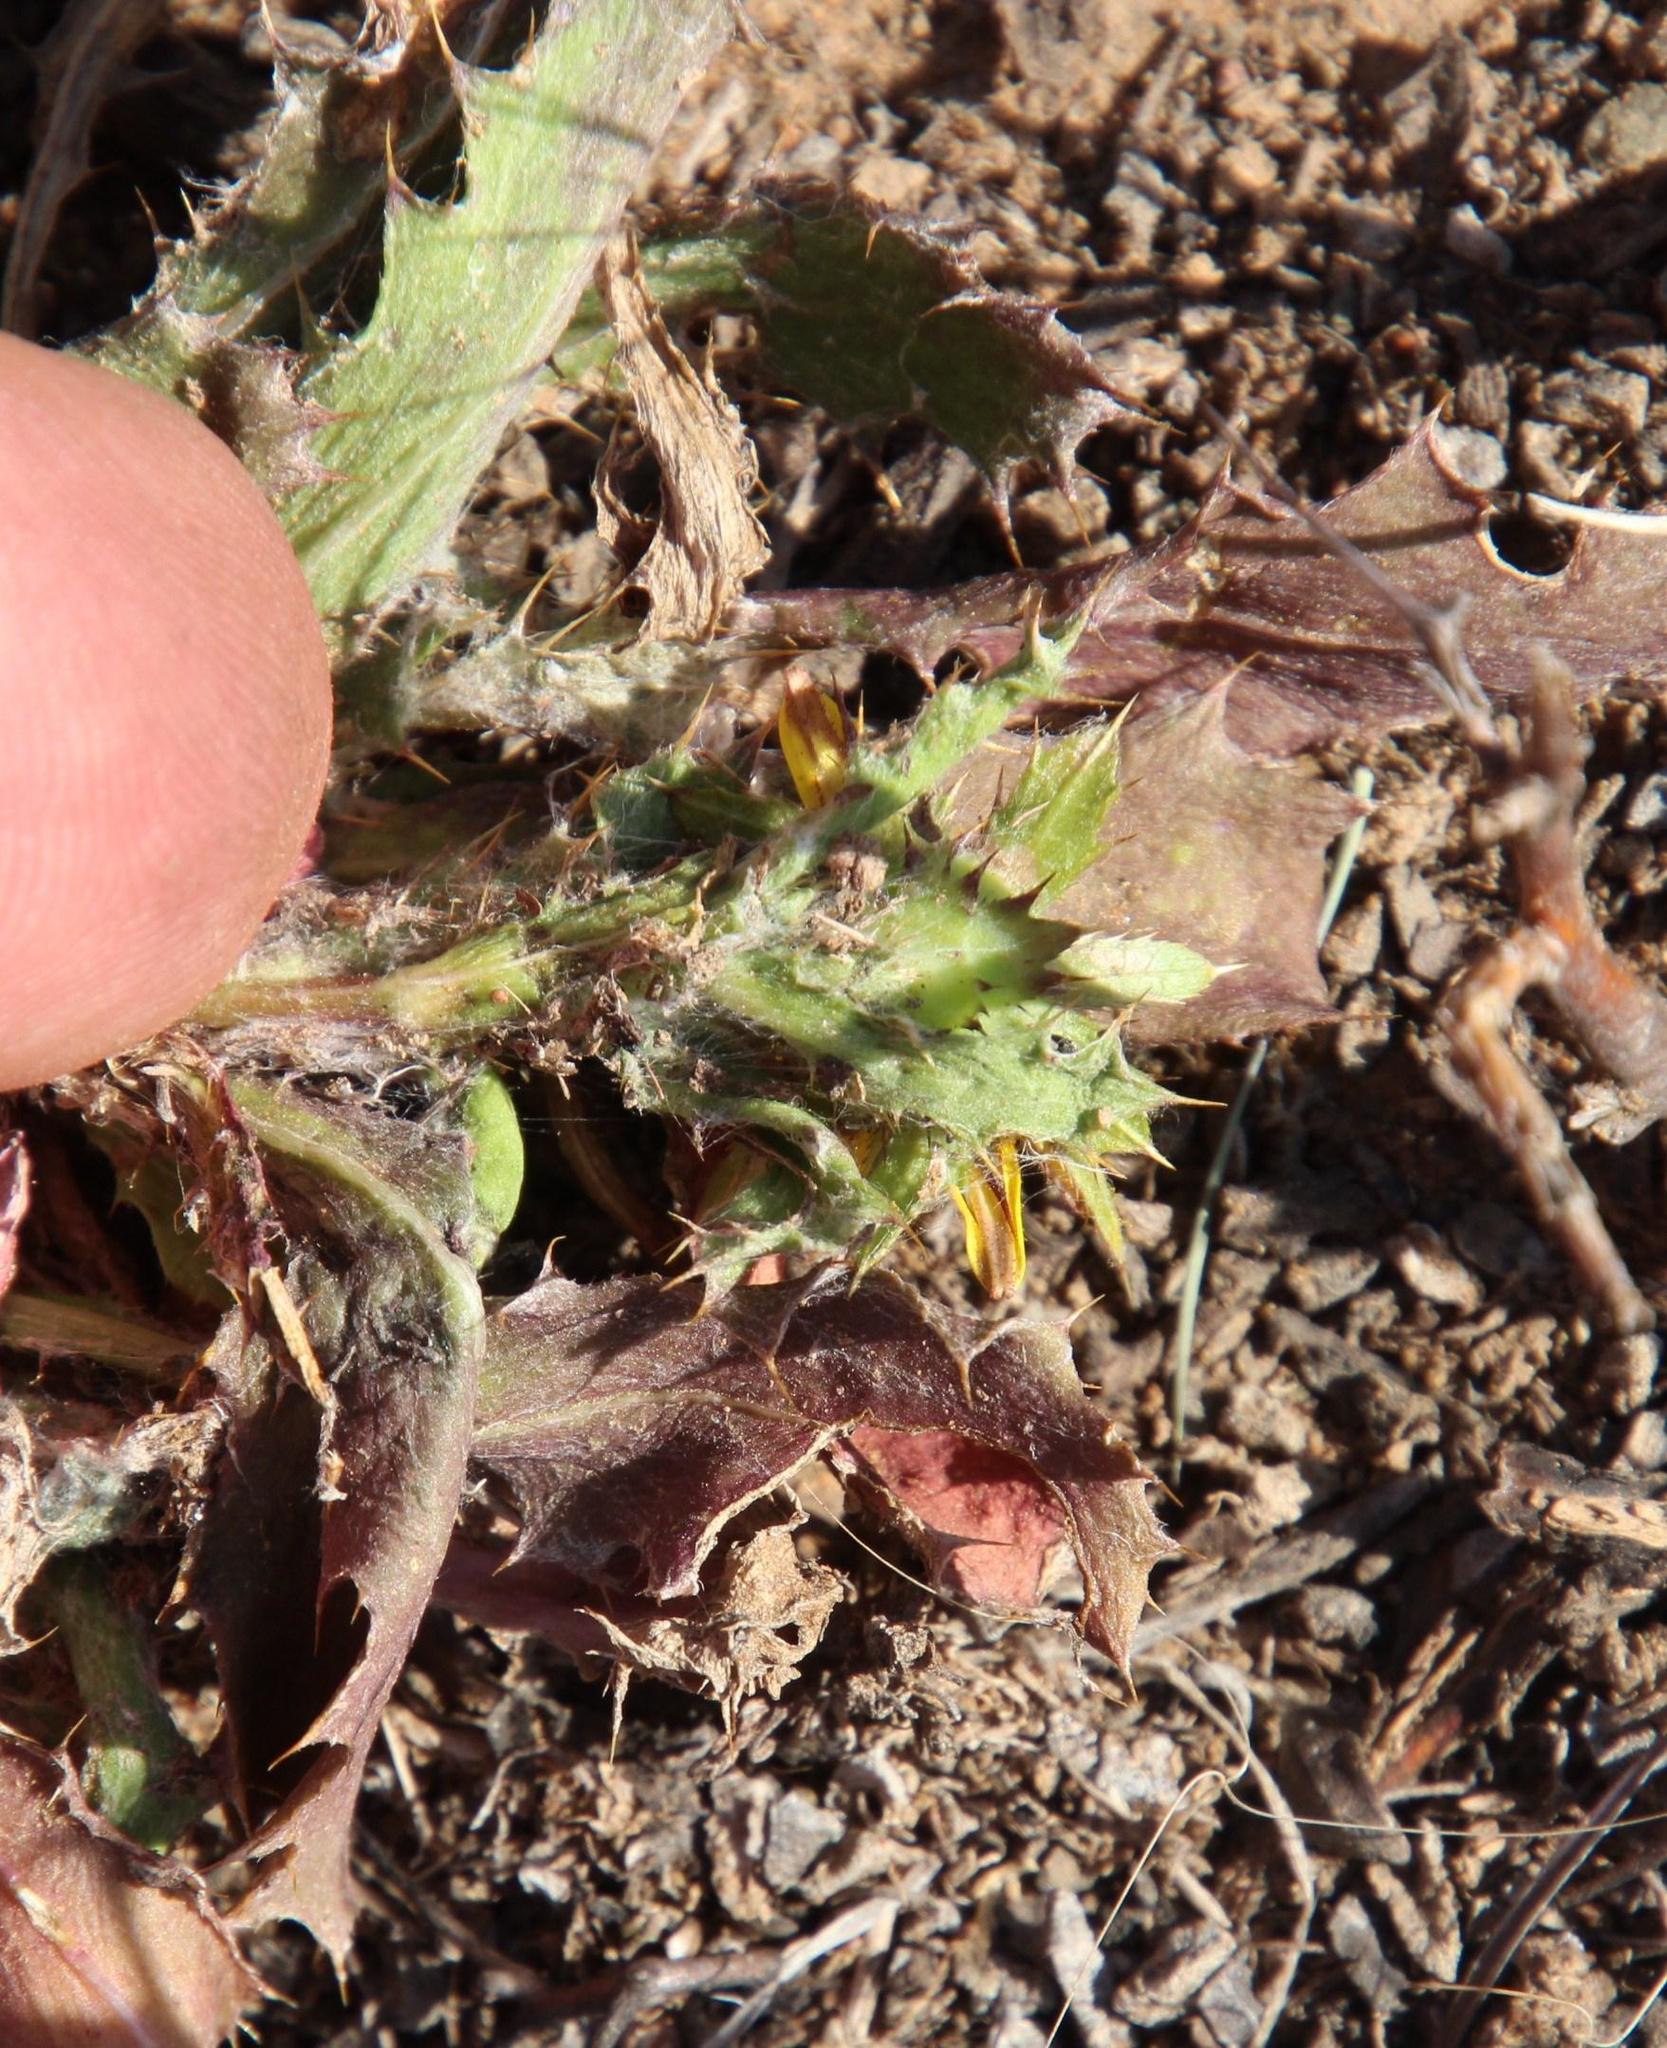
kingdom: Plantae
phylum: Tracheophyta
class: Magnoliopsida
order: Asterales
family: Asteraceae
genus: Cuspidia
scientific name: Cuspidia cernua
